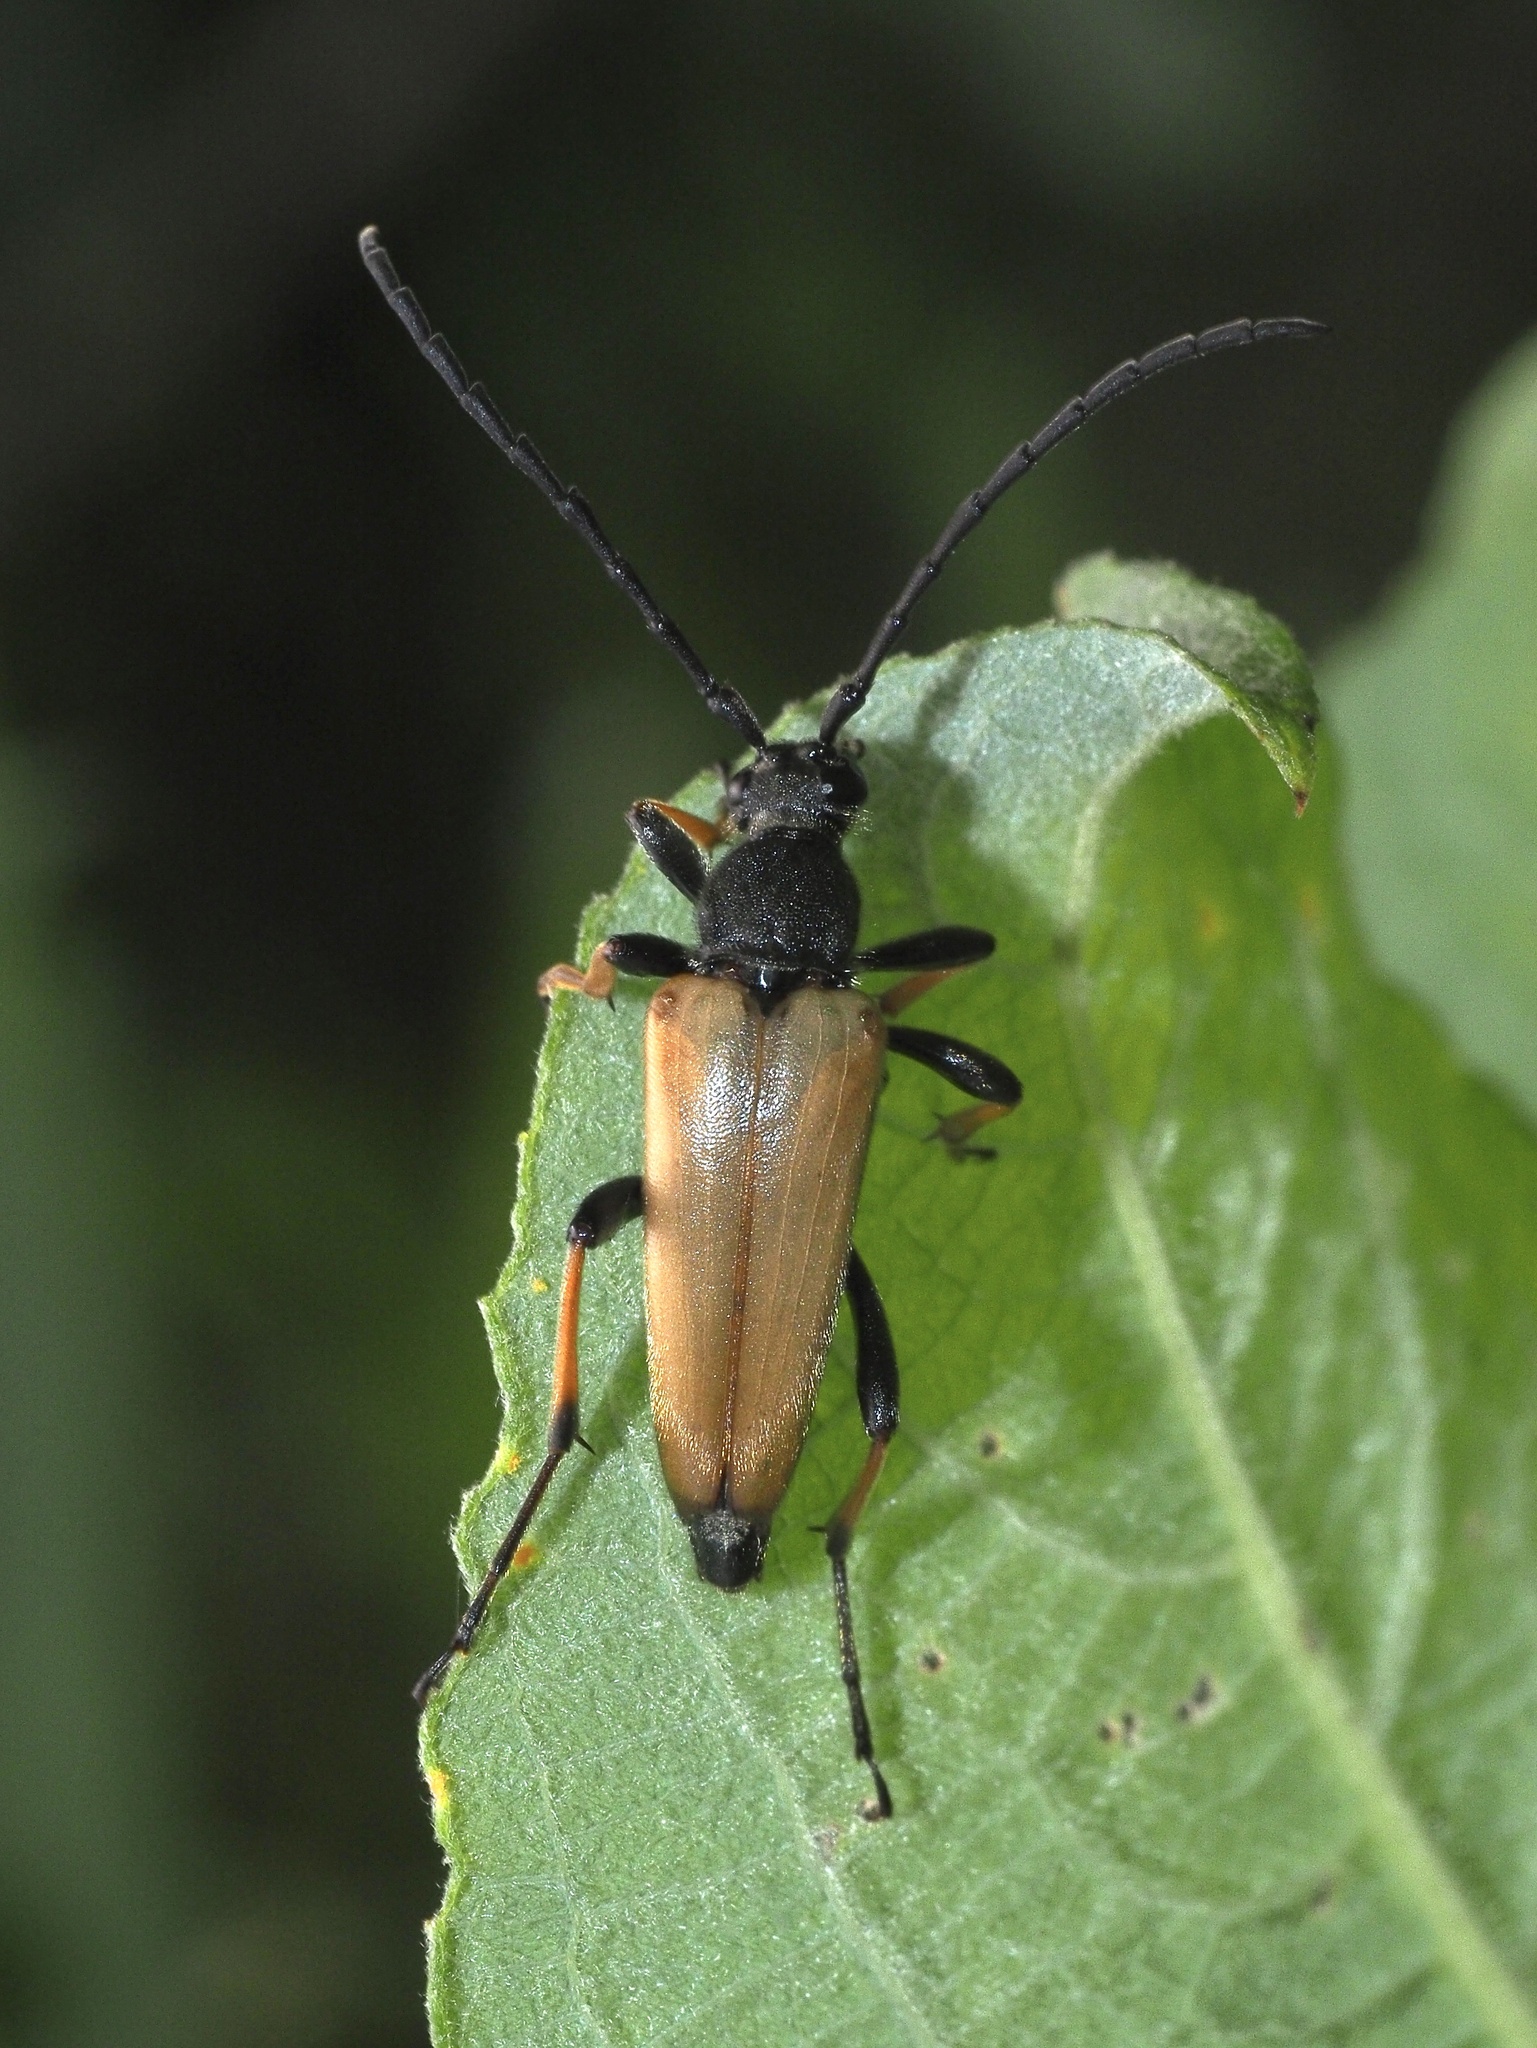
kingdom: Animalia
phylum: Arthropoda
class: Insecta
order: Coleoptera
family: Cerambycidae
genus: Stictoleptura
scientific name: Stictoleptura rubra
